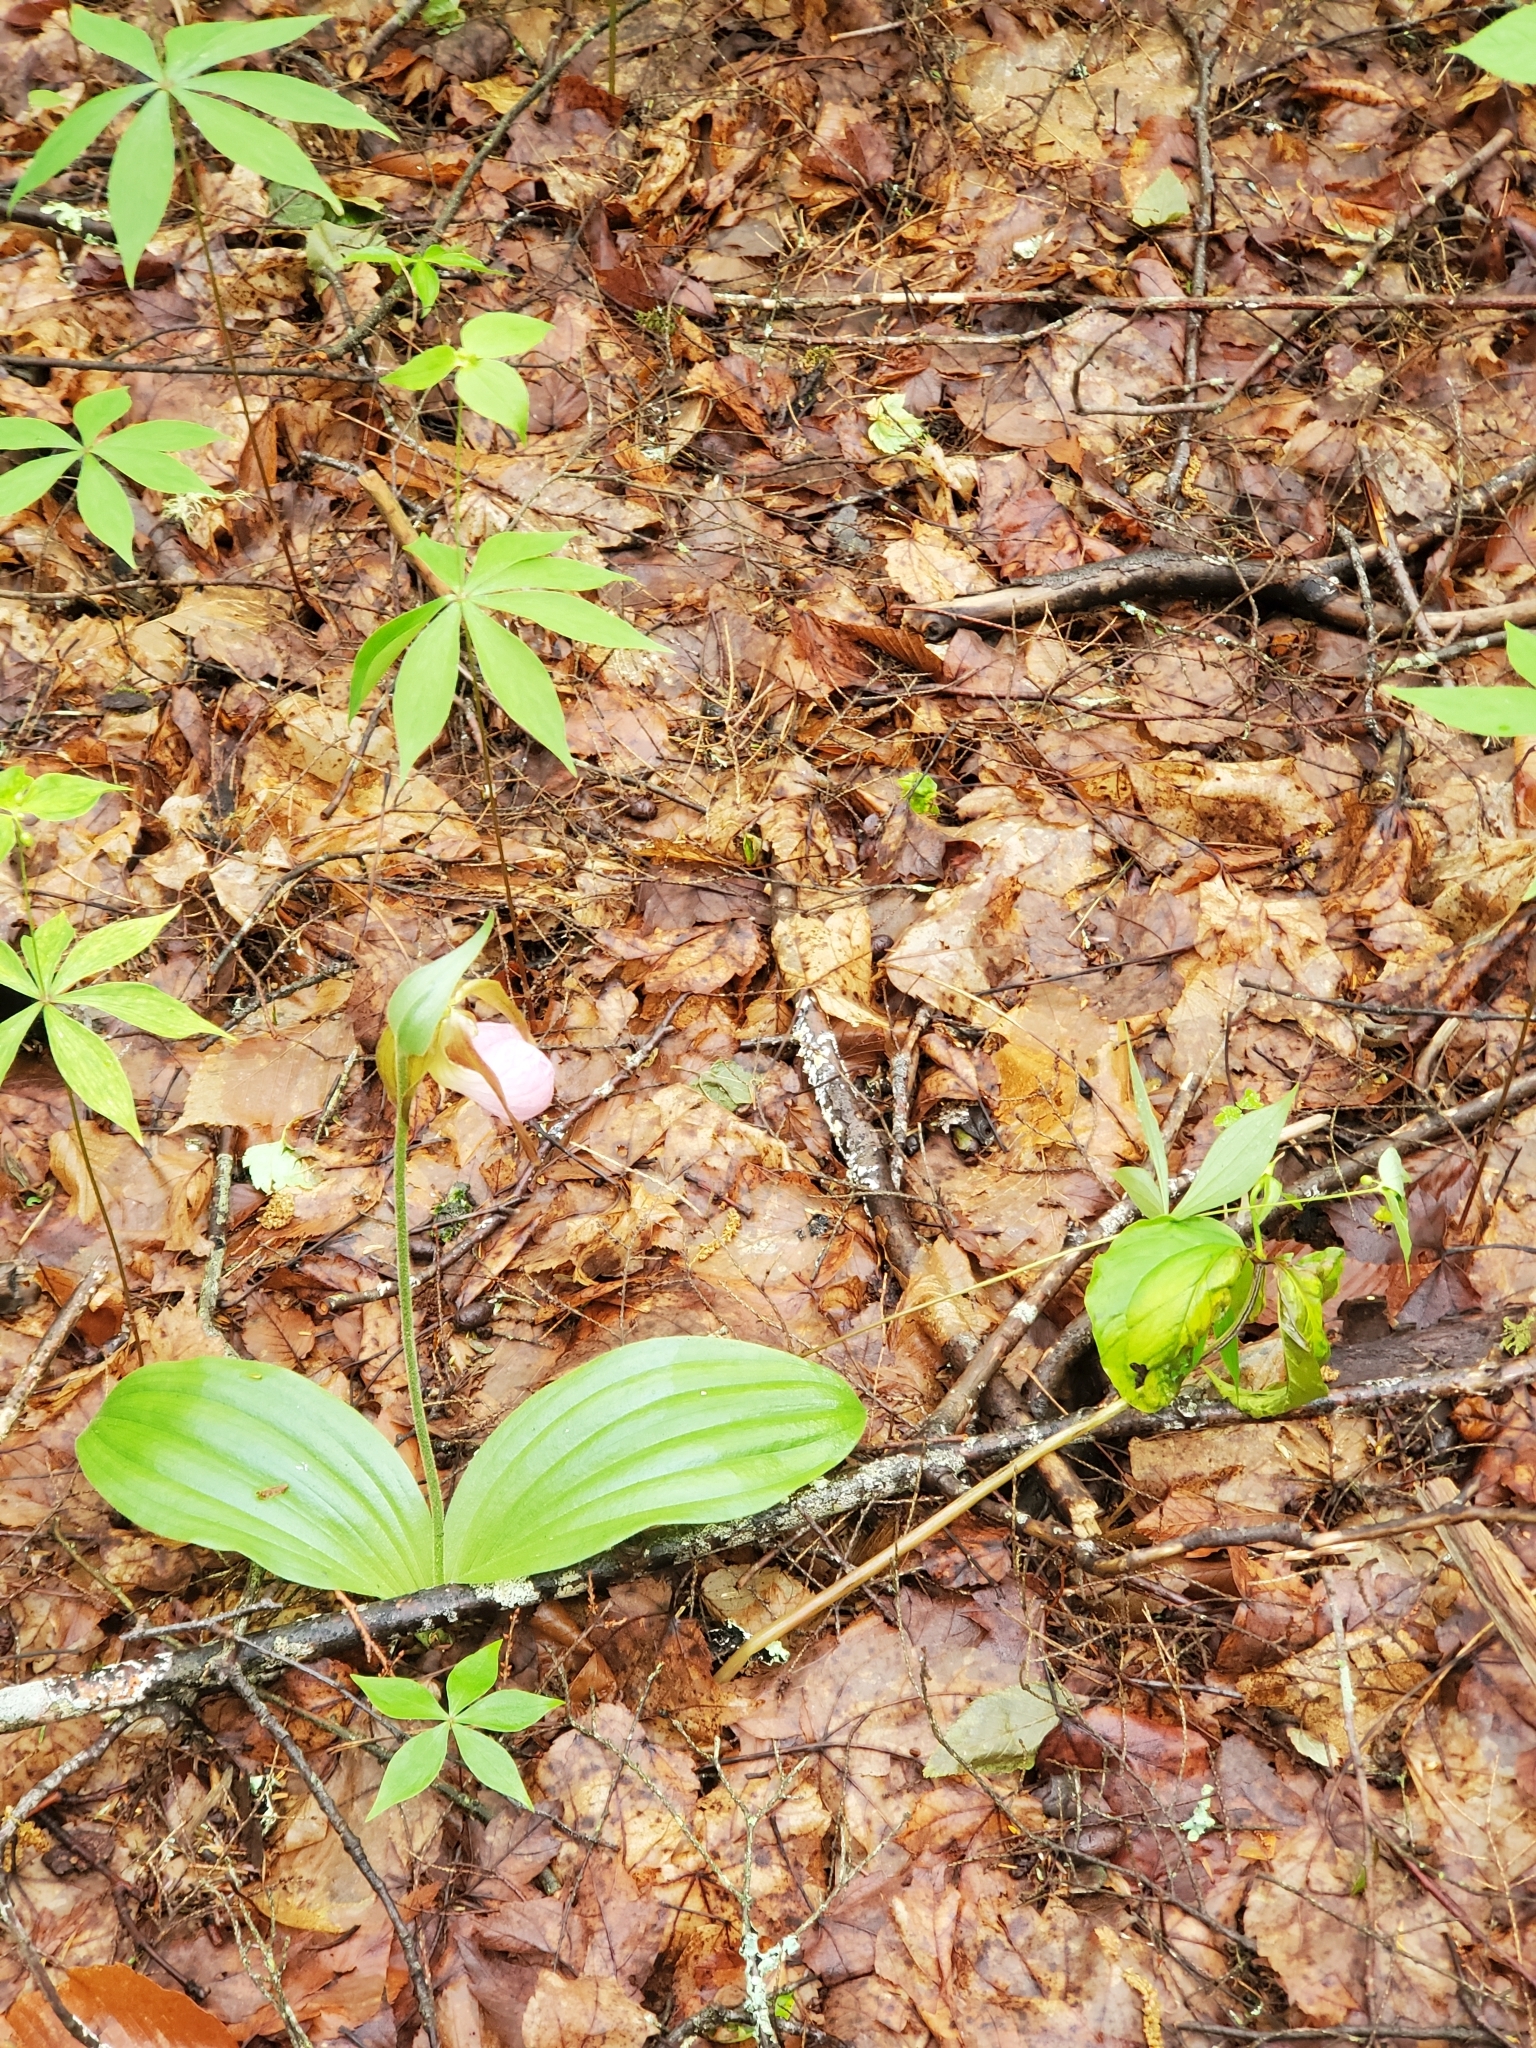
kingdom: Plantae
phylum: Tracheophyta
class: Liliopsida
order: Asparagales
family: Orchidaceae
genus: Cypripedium
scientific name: Cypripedium acaule
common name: Pink lady's-slipper
